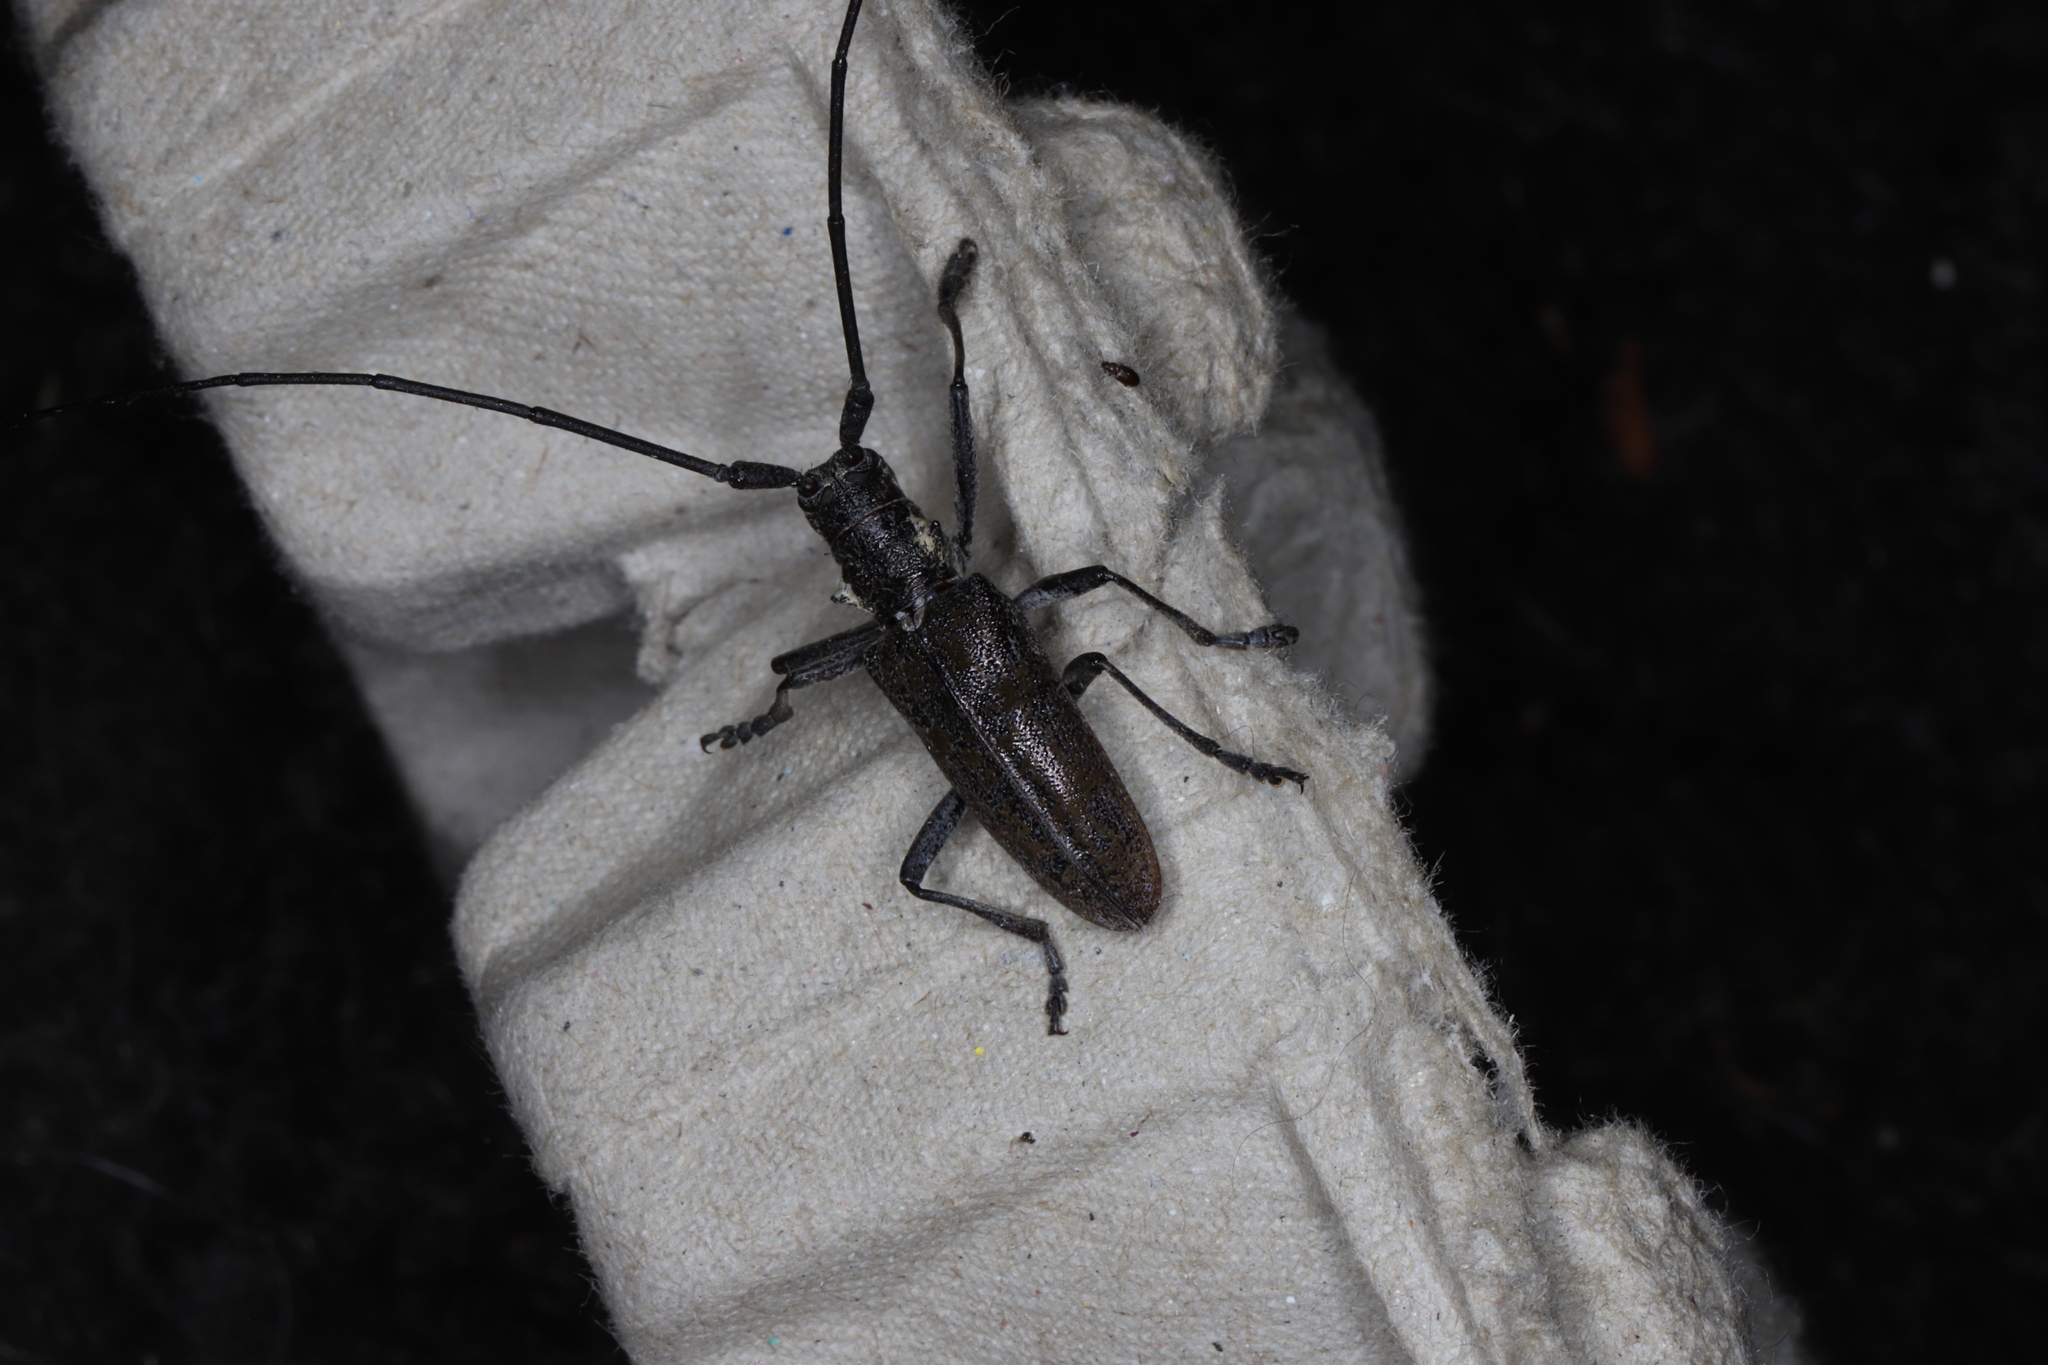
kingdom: Animalia
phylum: Arthropoda
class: Insecta
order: Coleoptera
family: Cerambycidae
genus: Monochamus
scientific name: Monochamus
